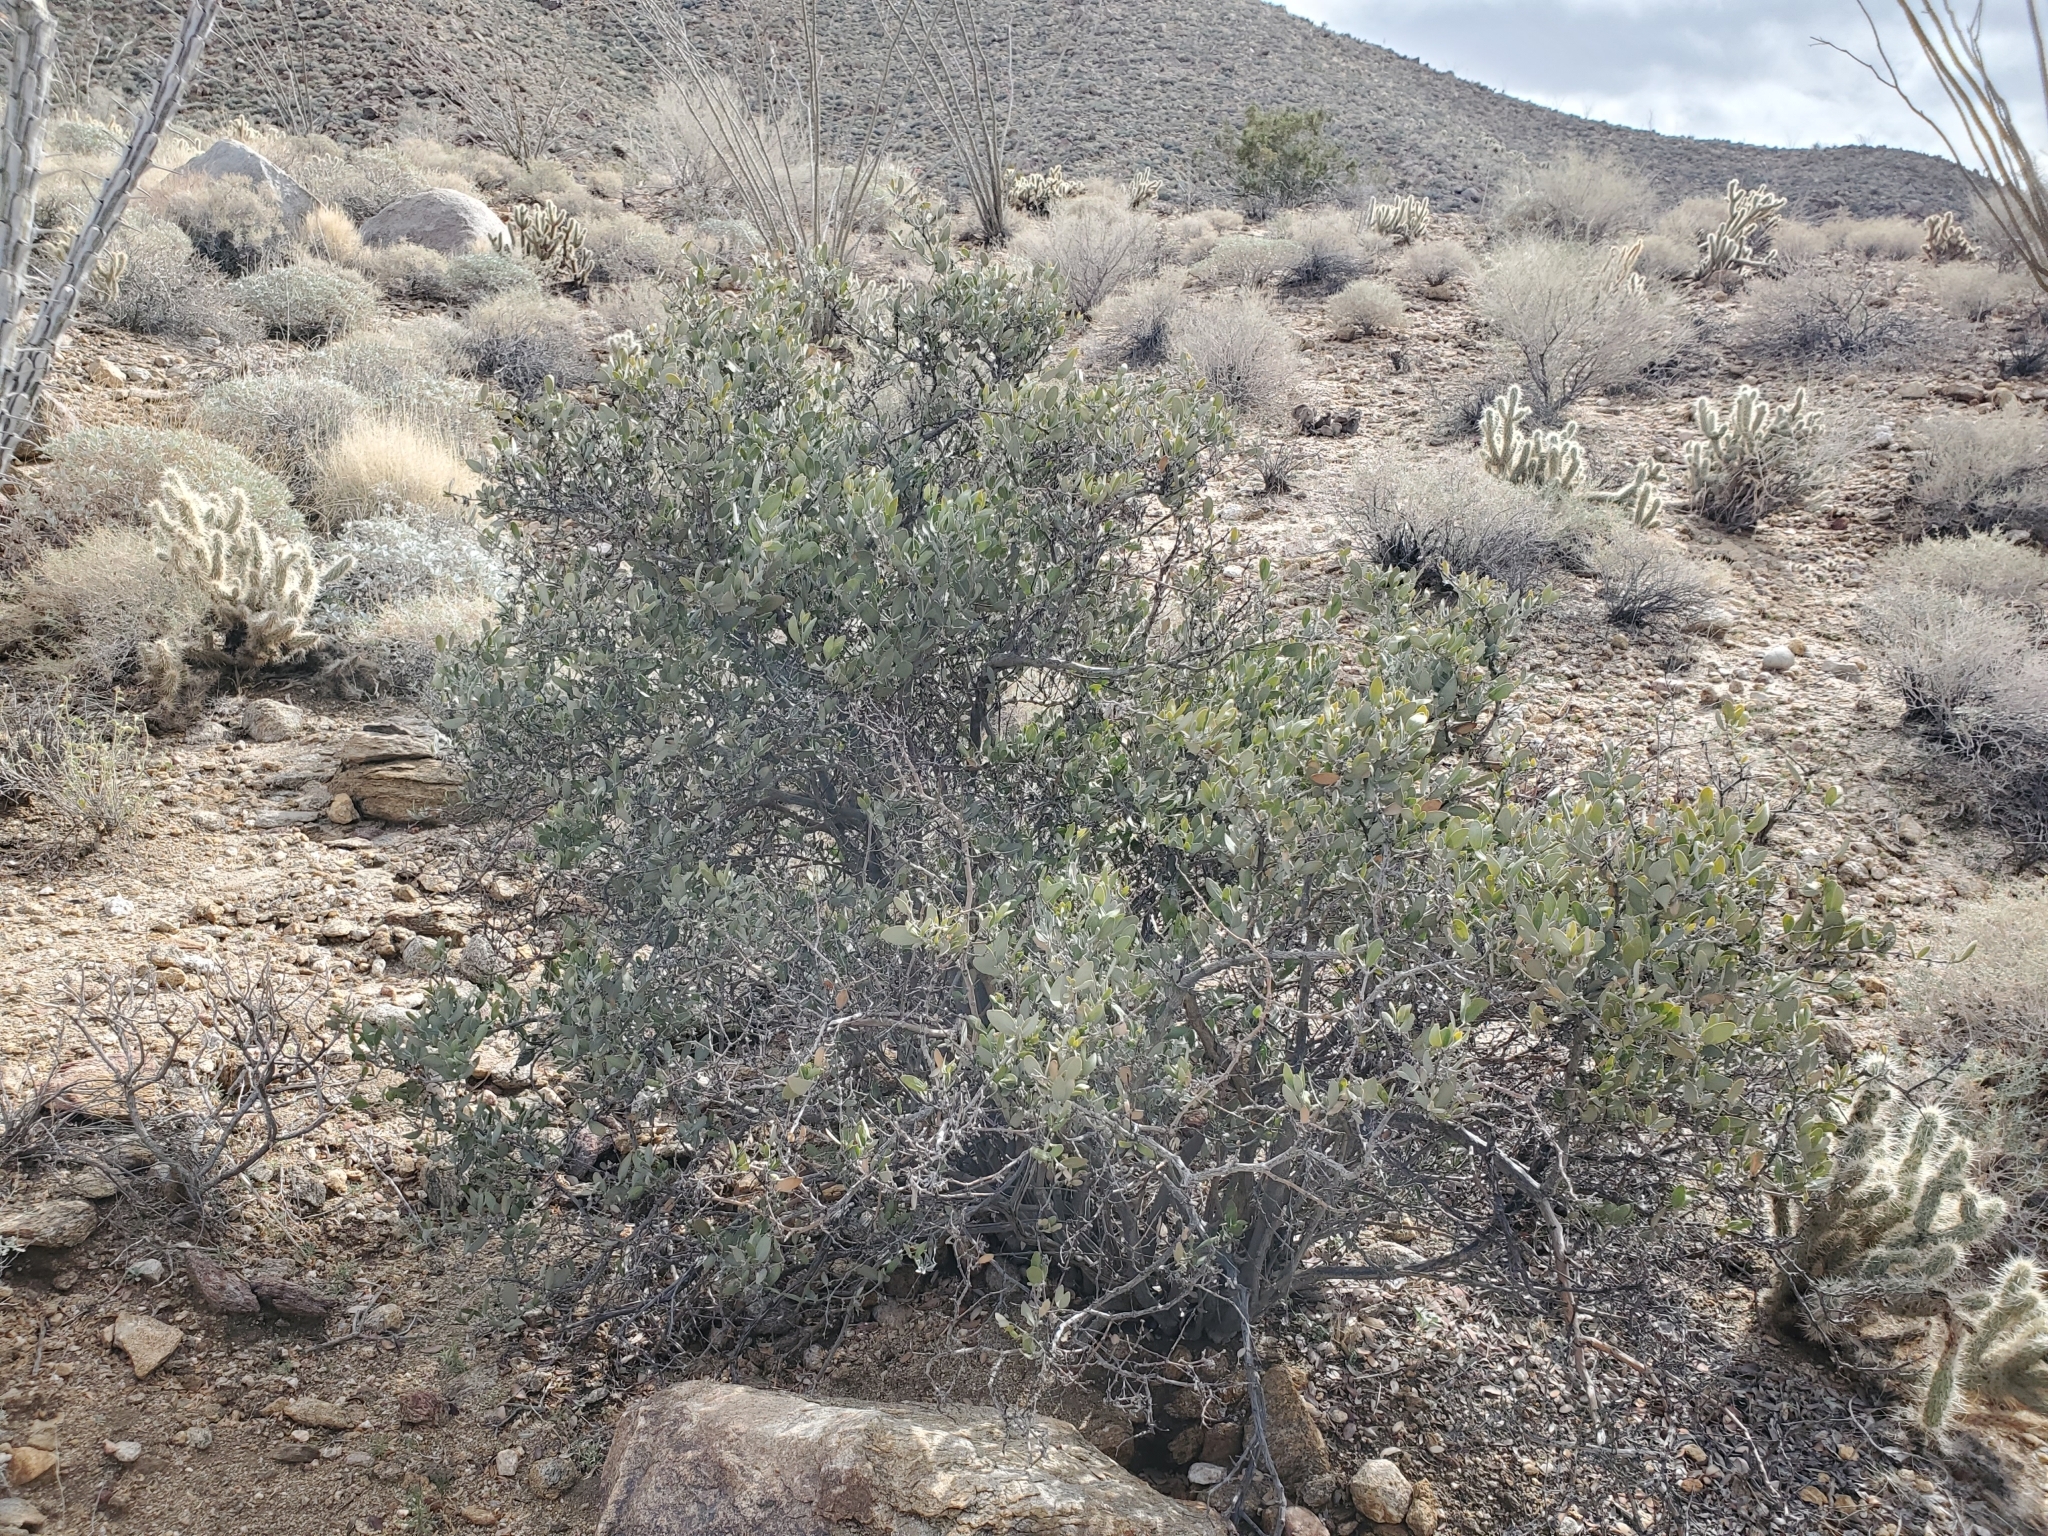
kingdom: Plantae
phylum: Tracheophyta
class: Magnoliopsida
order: Caryophyllales
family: Simmondsiaceae
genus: Simmondsia
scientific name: Simmondsia chinensis
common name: Jojoba
